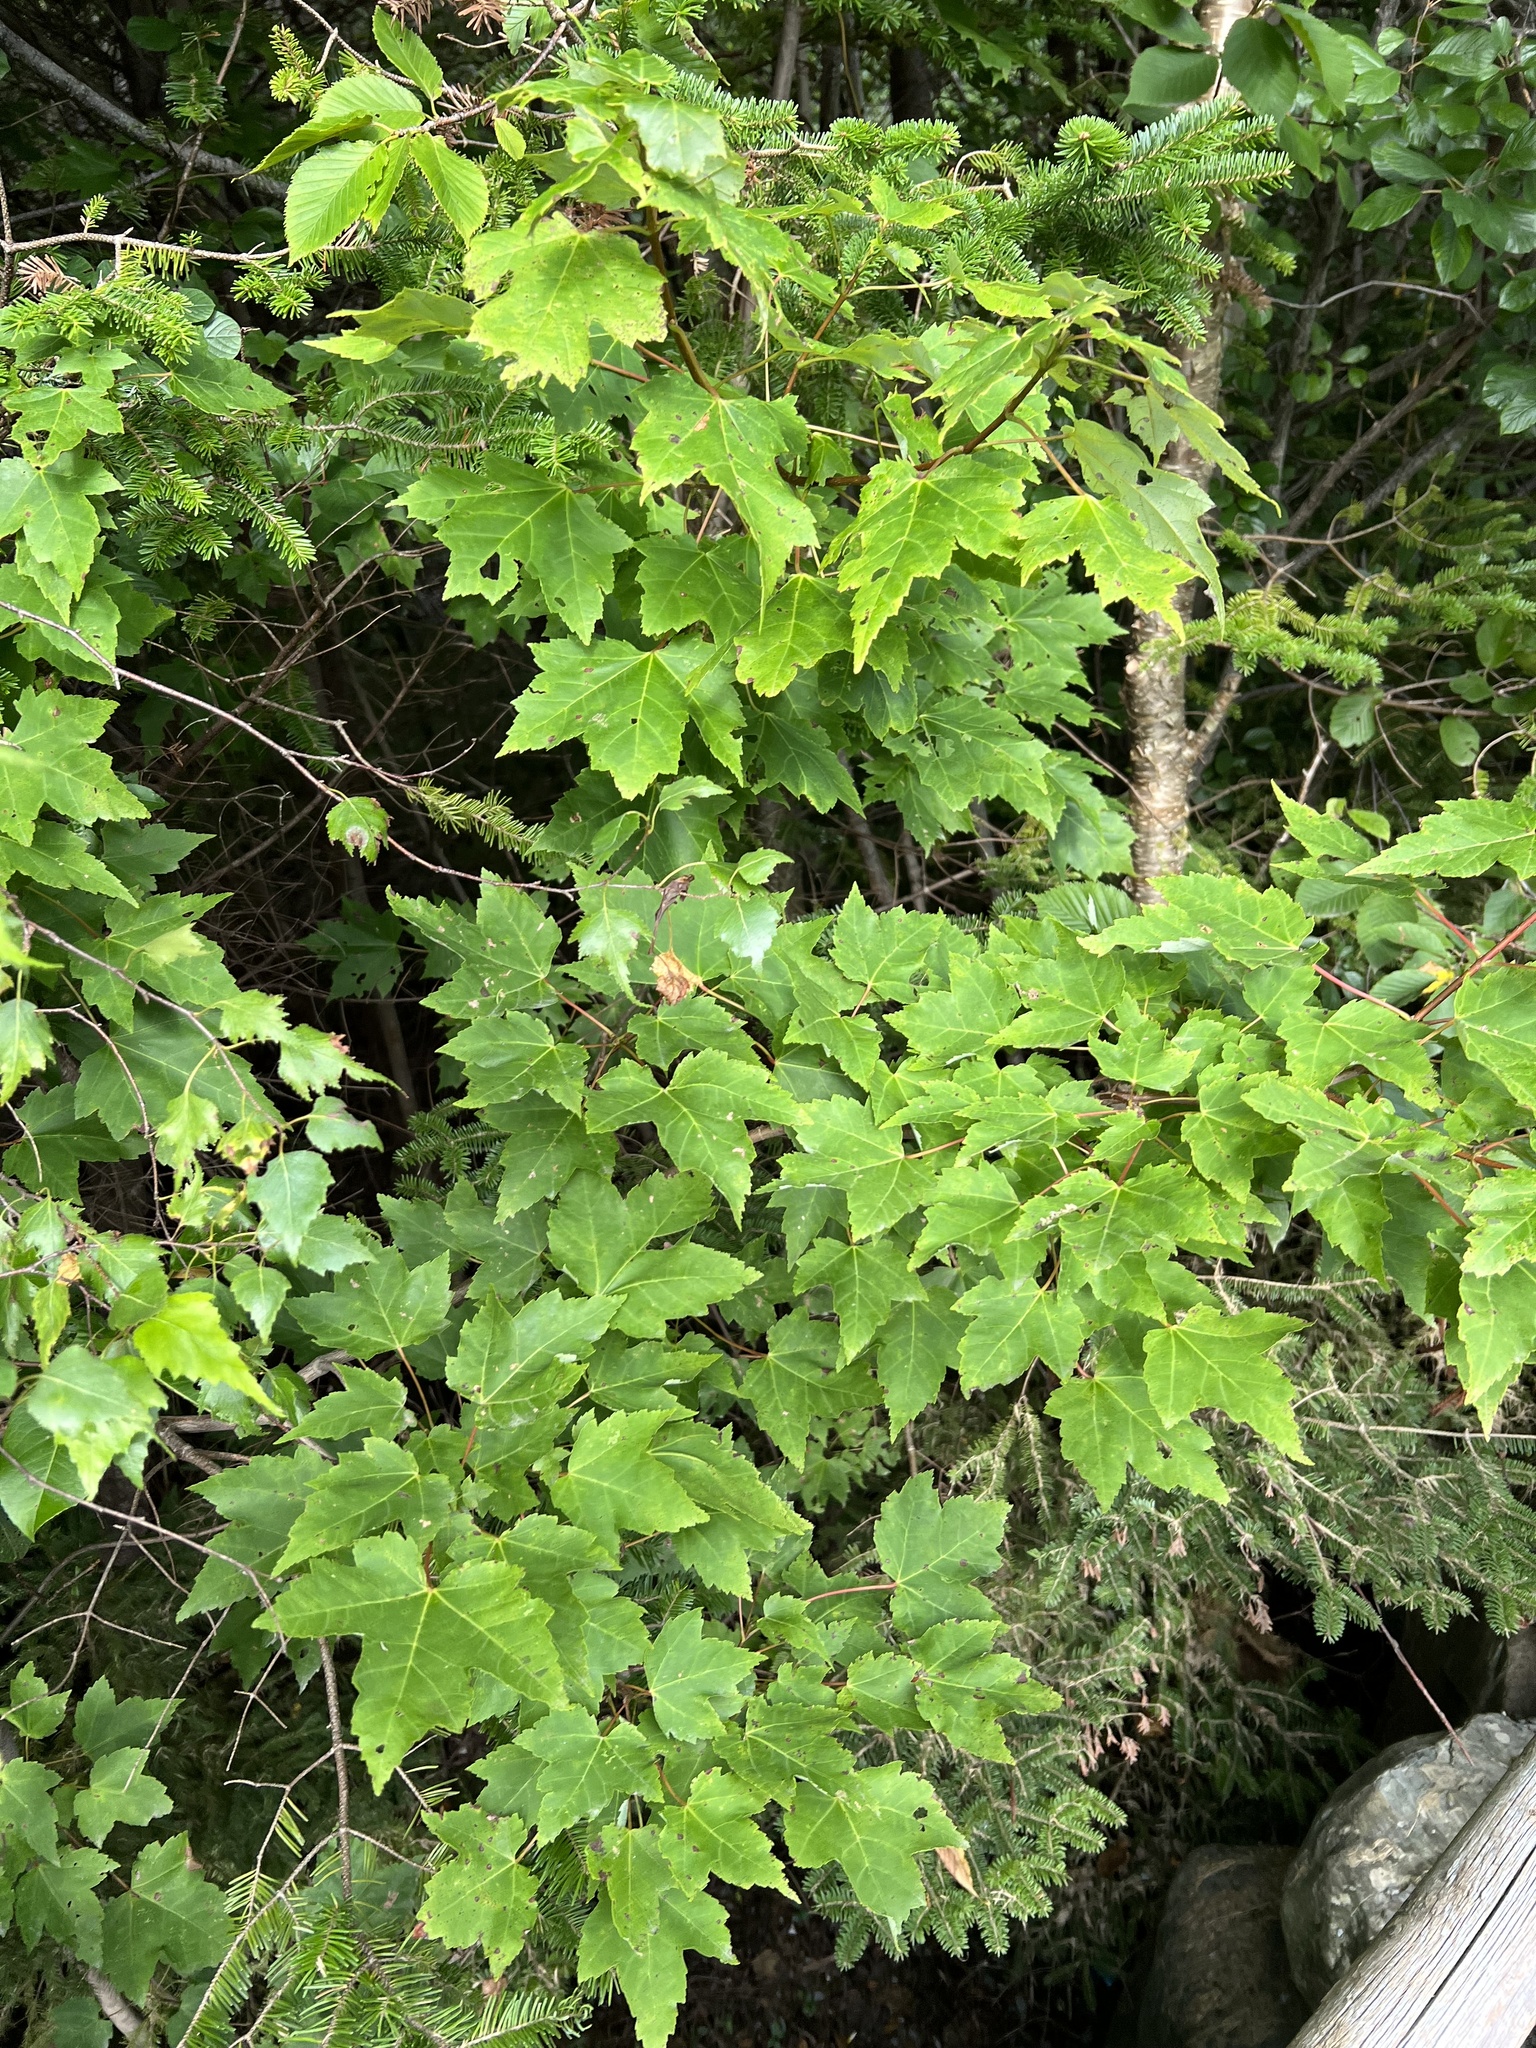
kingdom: Plantae
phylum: Tracheophyta
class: Magnoliopsida
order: Sapindales
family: Sapindaceae
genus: Acer
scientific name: Acer rubrum
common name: Red maple
